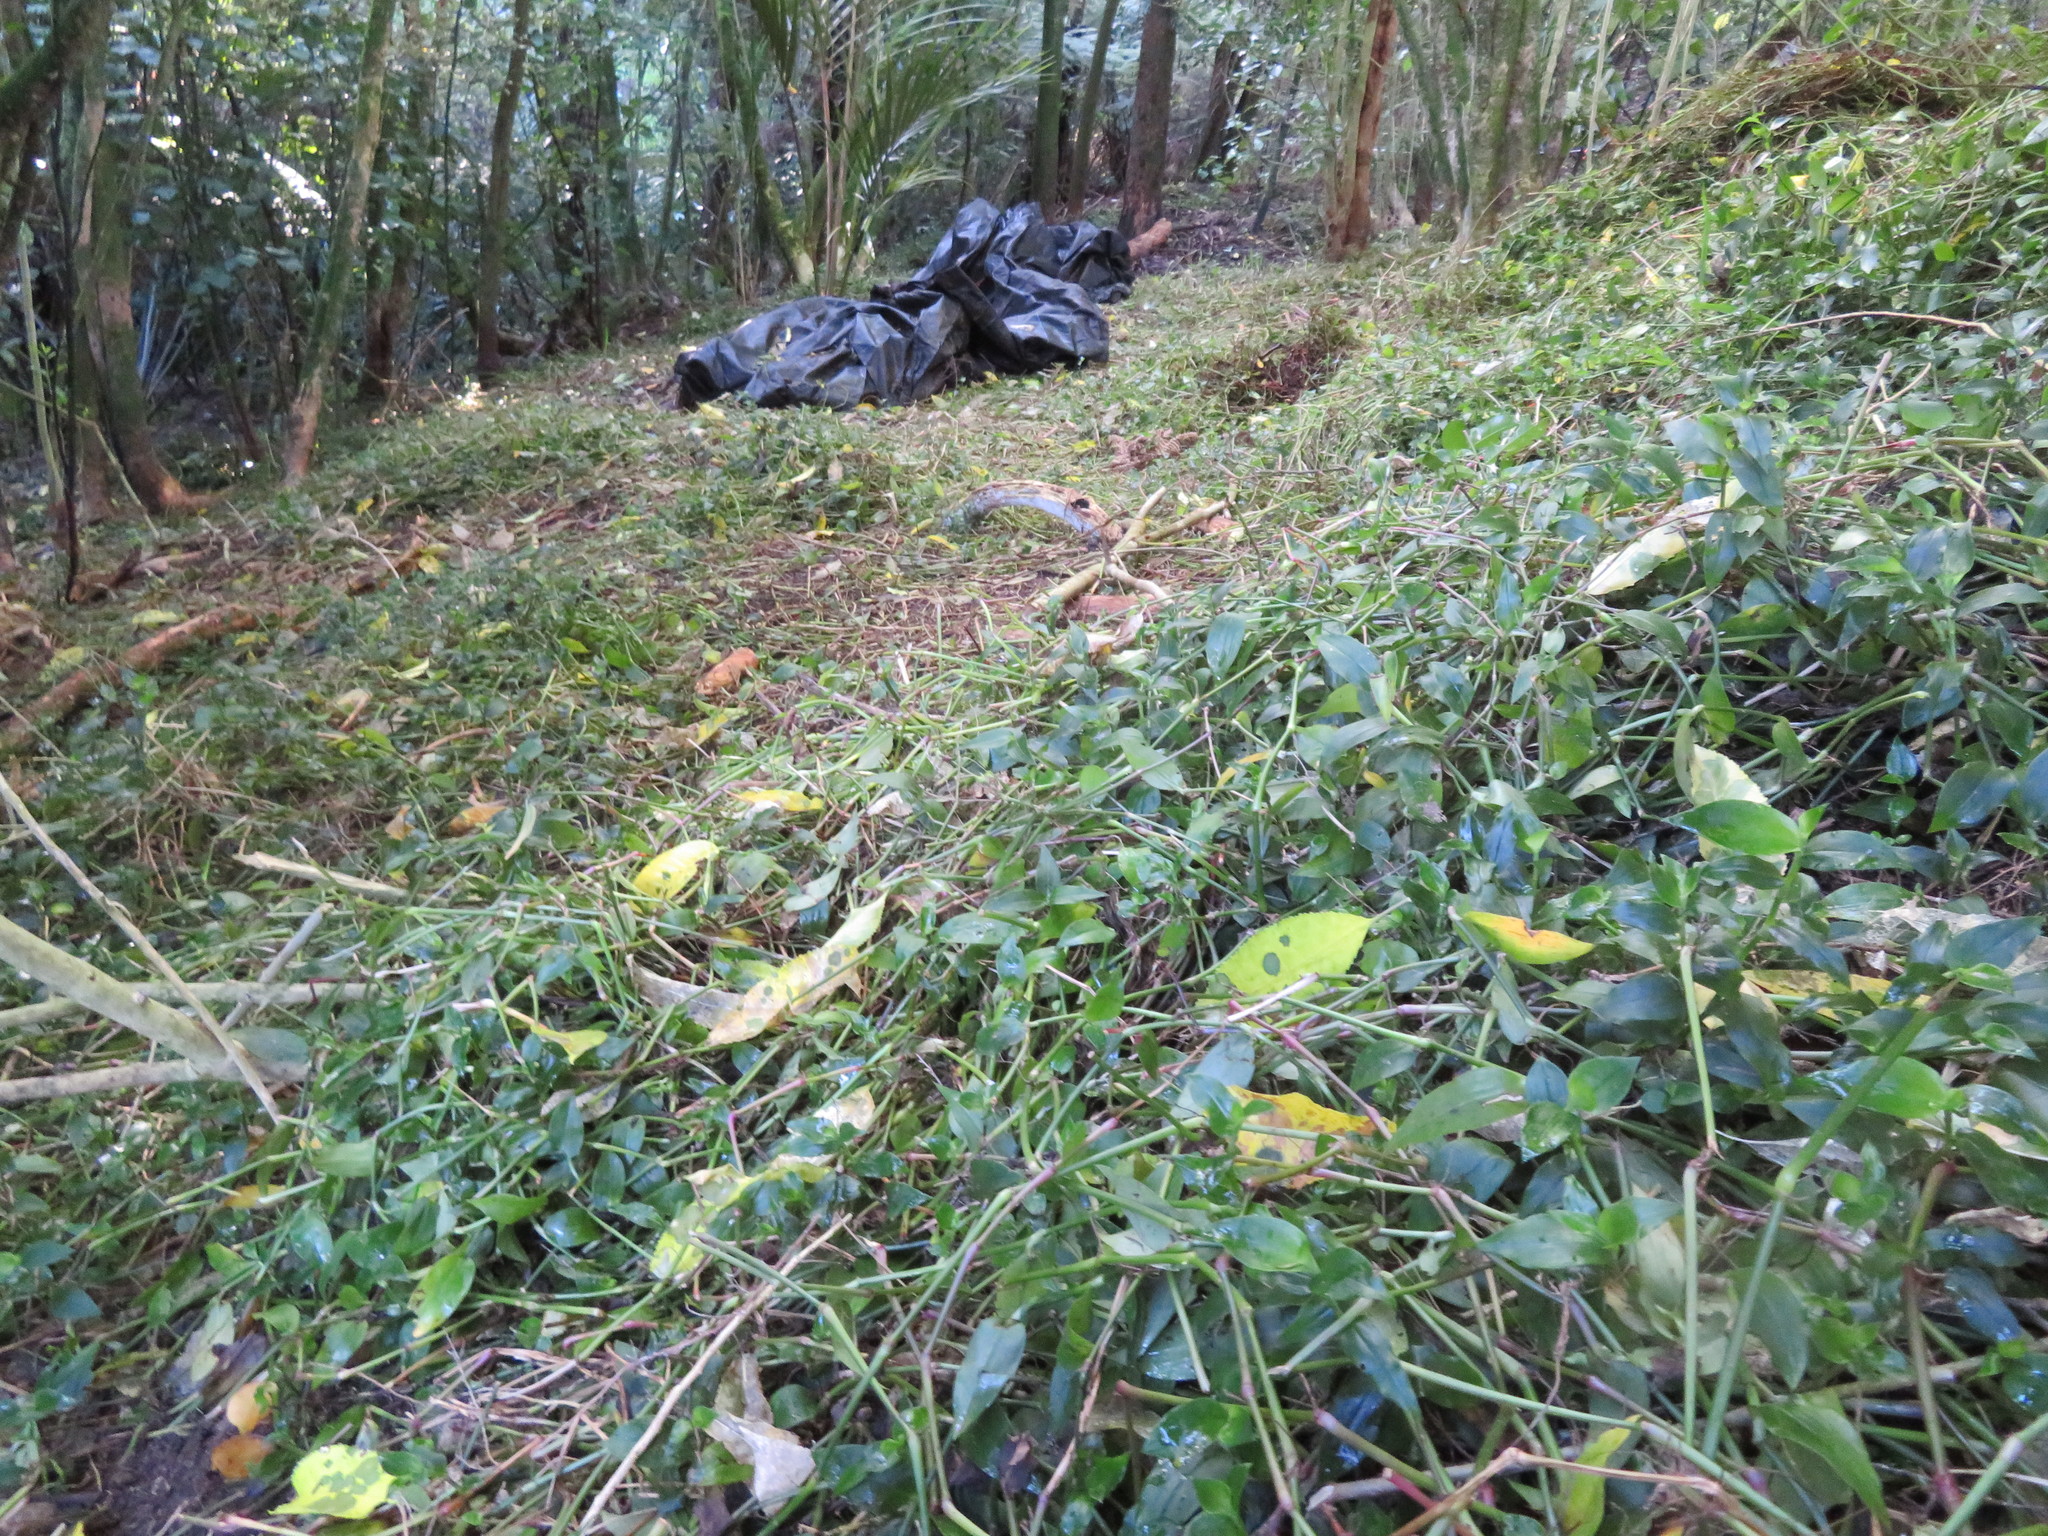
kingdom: Plantae
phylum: Tracheophyta
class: Liliopsida
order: Commelinales
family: Commelinaceae
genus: Tradescantia
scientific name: Tradescantia fluminensis
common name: Wandering-jew
